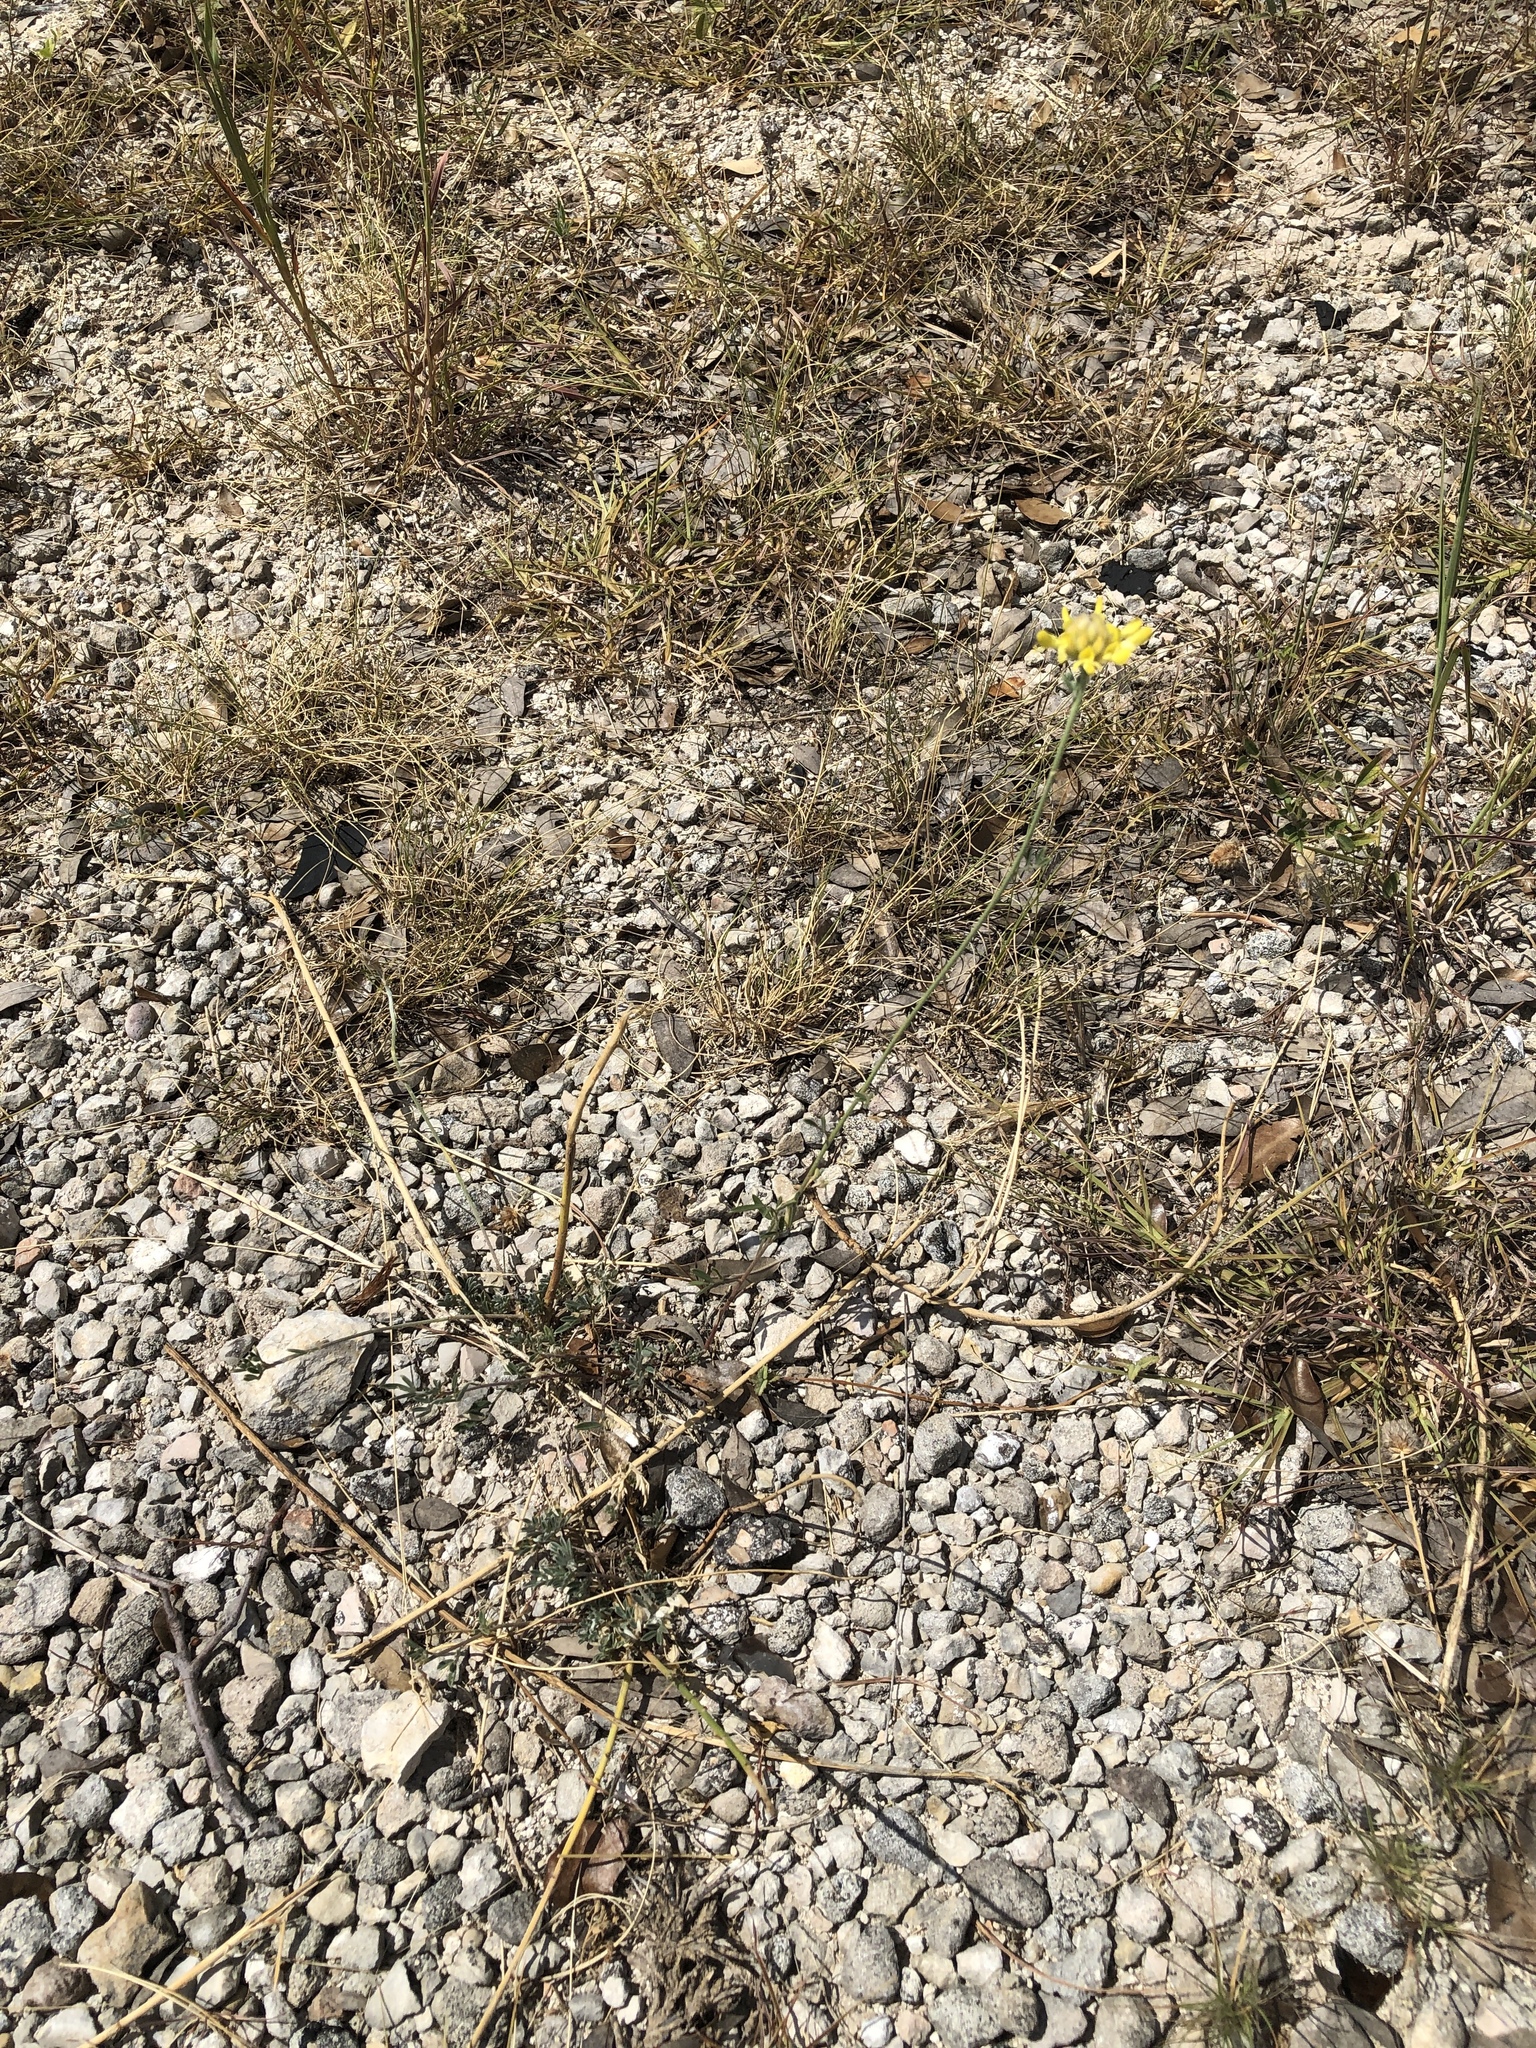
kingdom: Plantae
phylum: Tracheophyta
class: Magnoliopsida
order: Fabales
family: Fabaceae
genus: Dalea
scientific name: Dalea aurea
